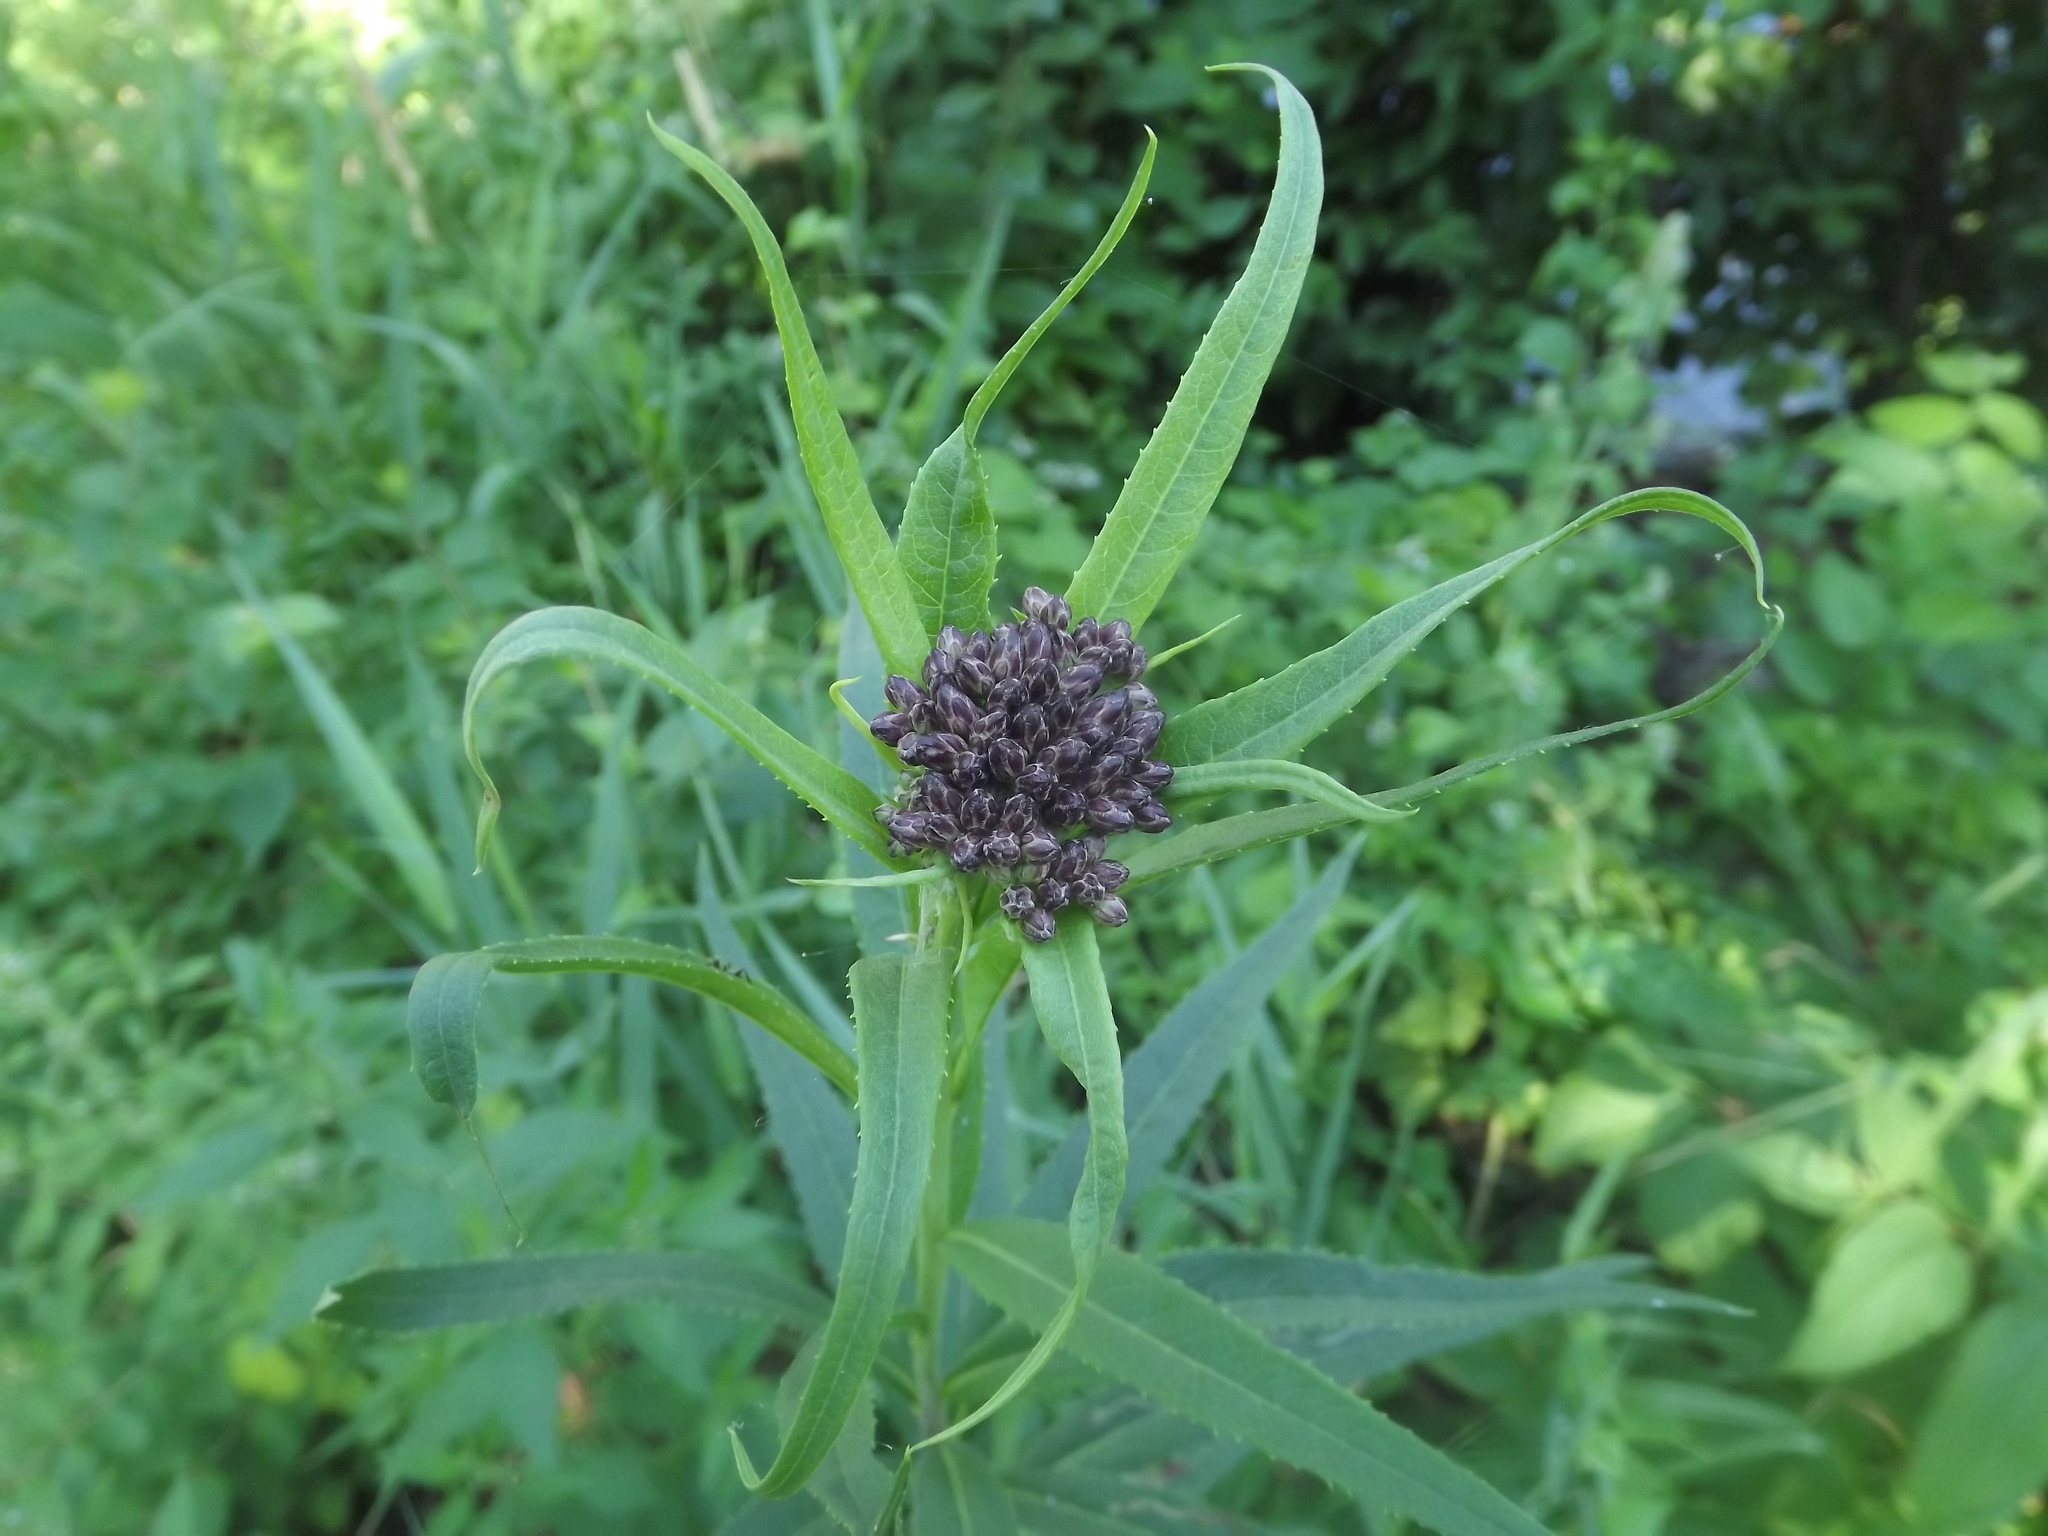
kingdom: Plantae
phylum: Tracheophyta
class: Magnoliopsida
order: Asterales
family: Asteraceae
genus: Vernonia
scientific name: Vernonia fasciculata
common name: Fascicled ironweed
